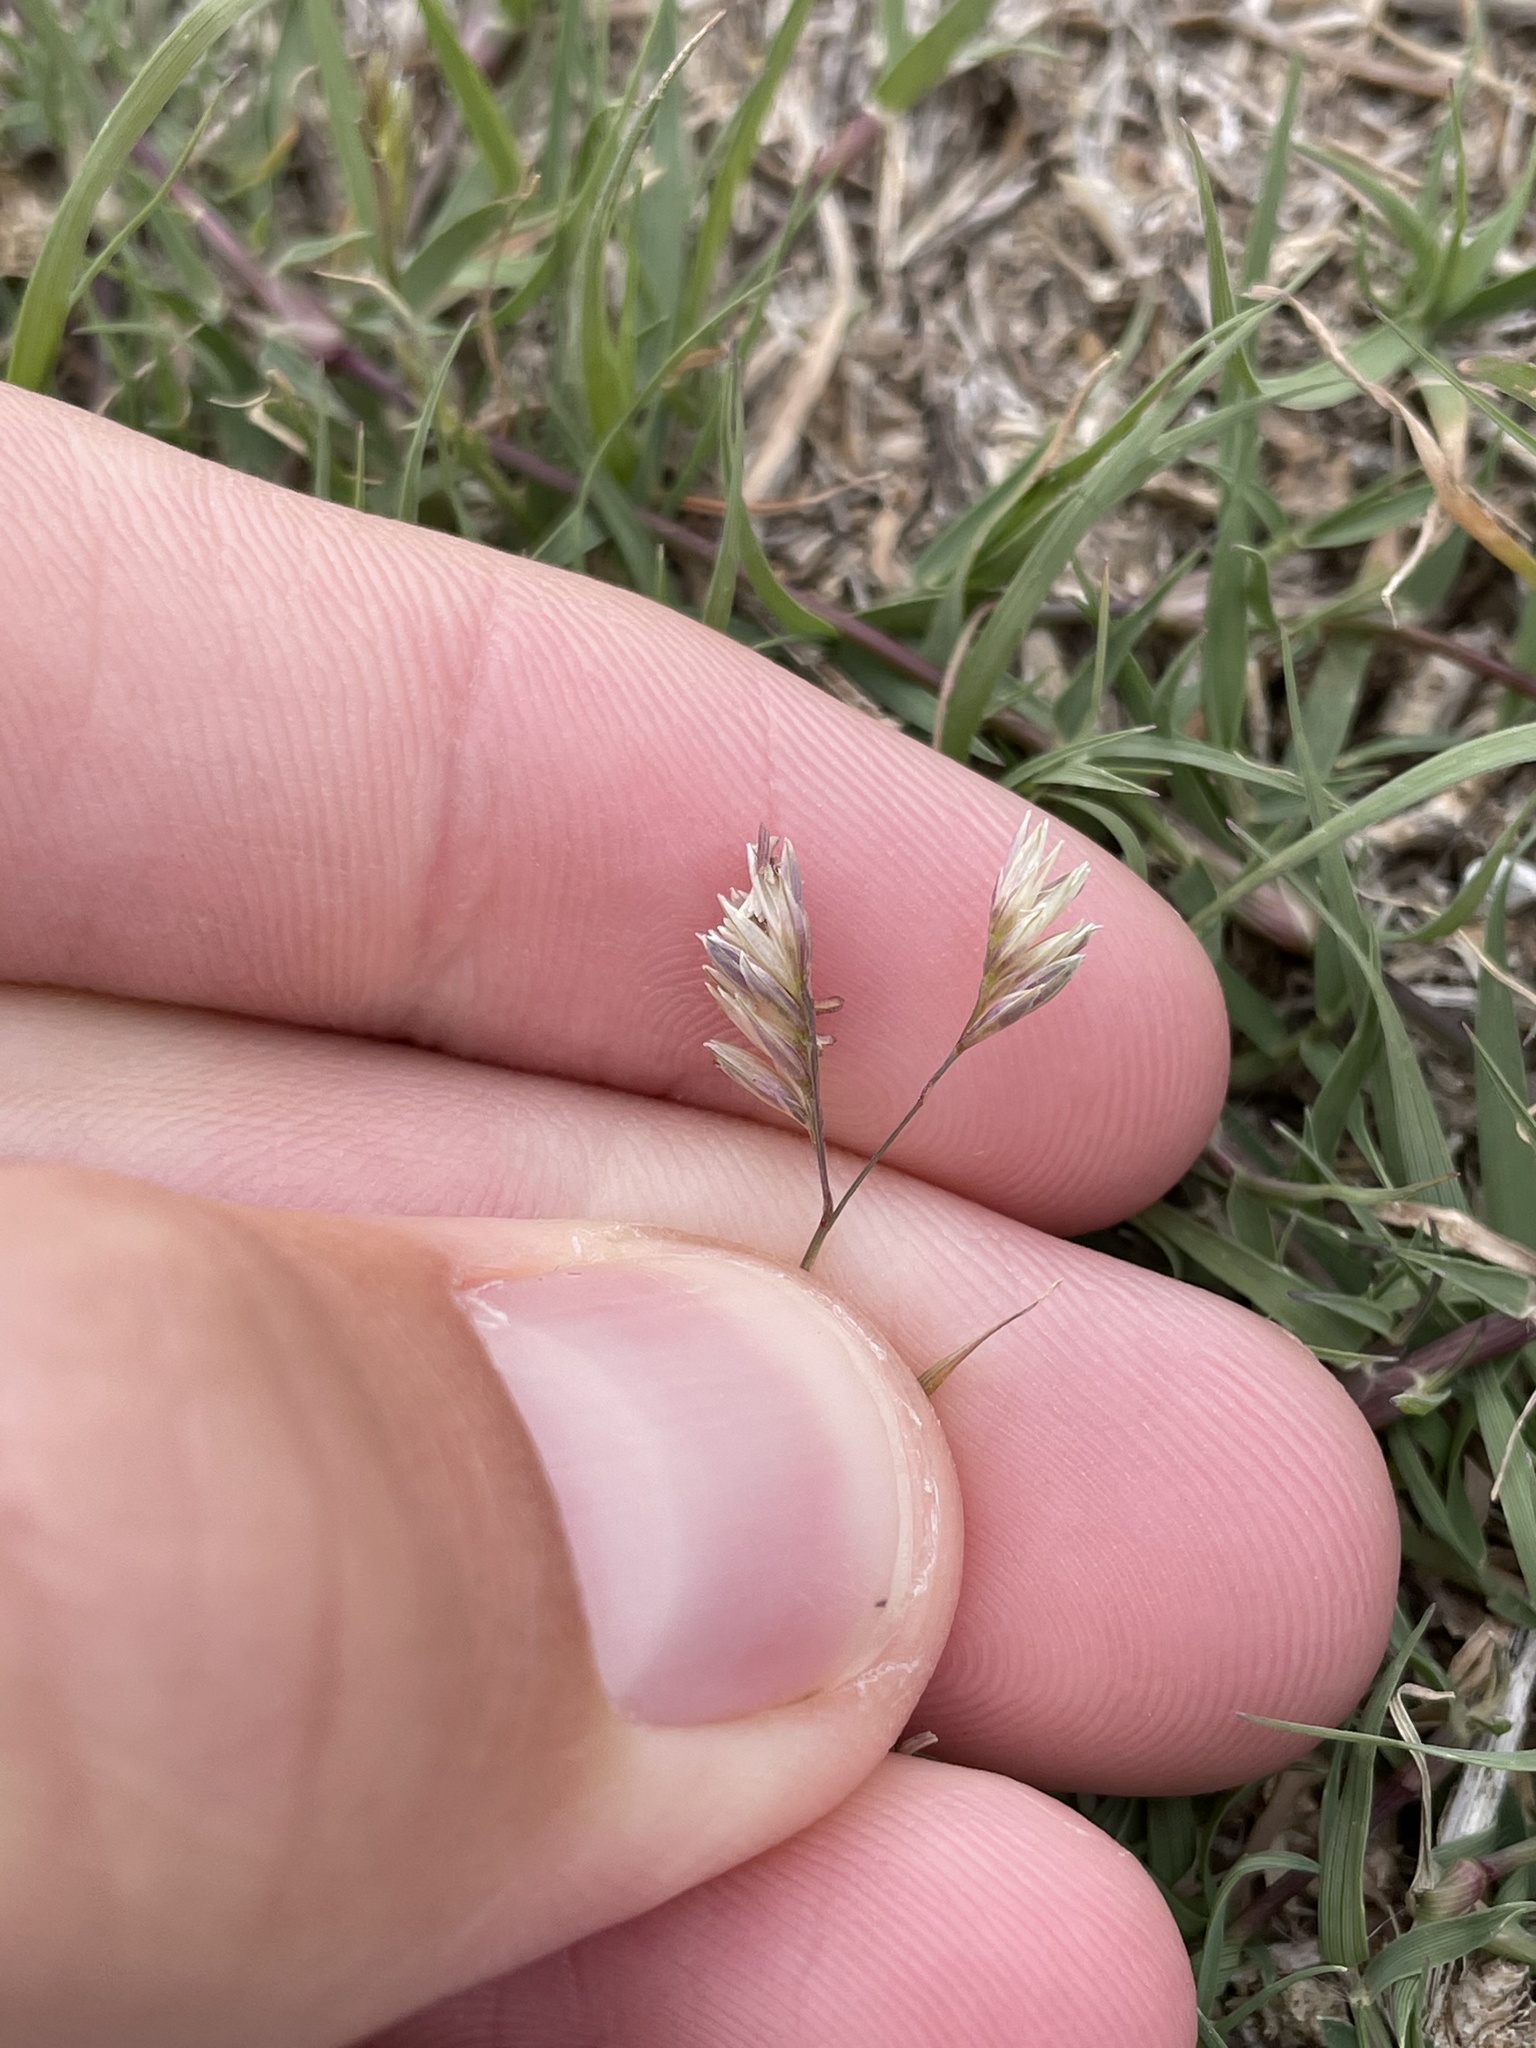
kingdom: Plantae
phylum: Tracheophyta
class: Liliopsida
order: Poales
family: Poaceae
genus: Bouteloua
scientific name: Bouteloua dactyloides
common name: Buffalo grass
